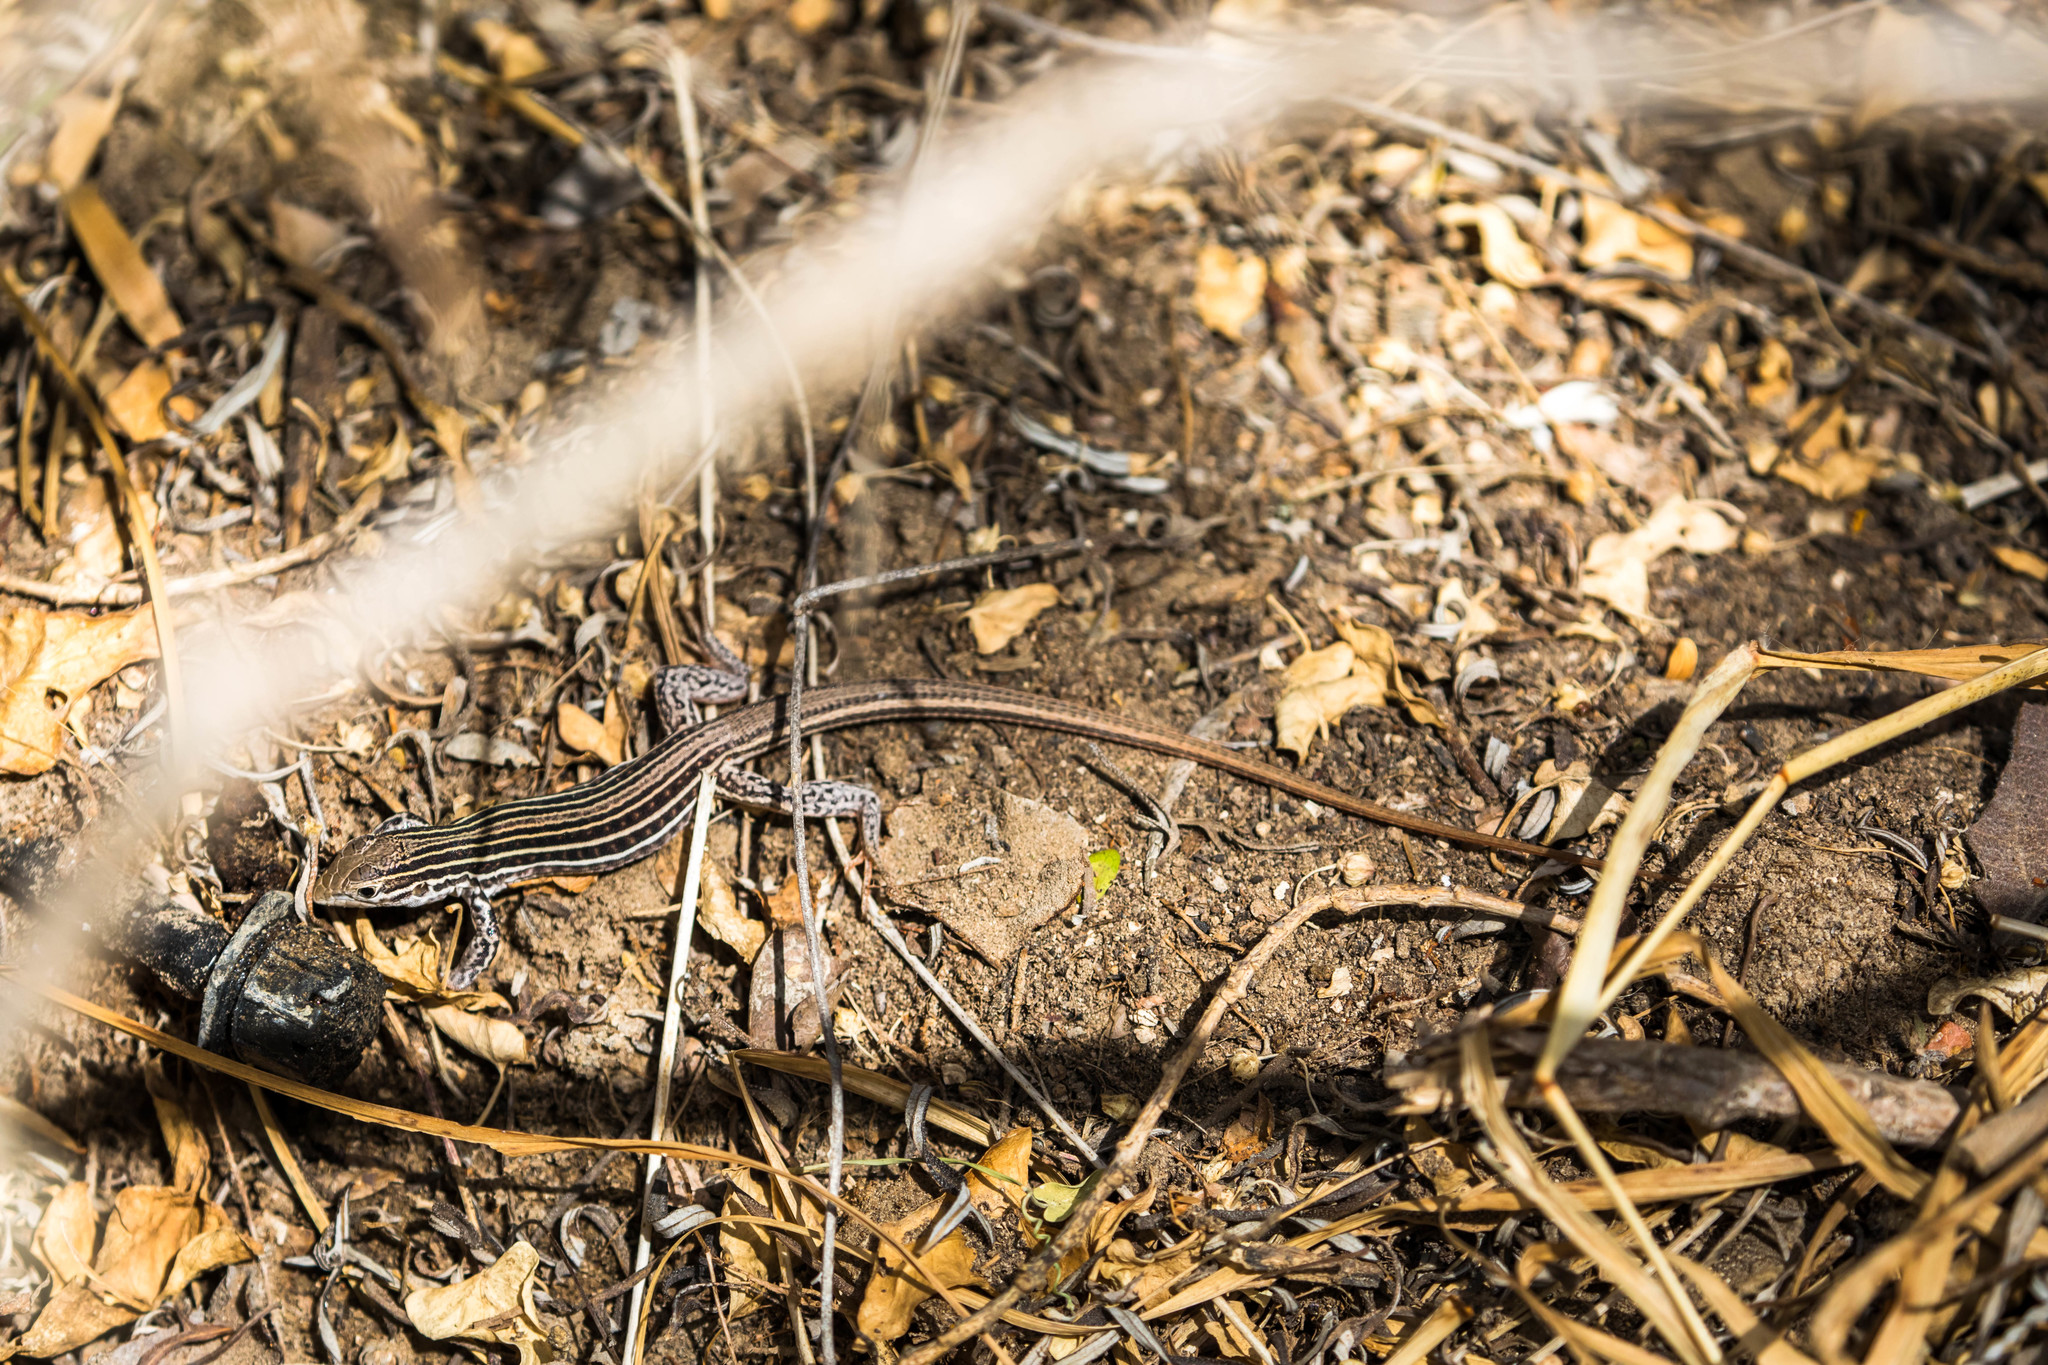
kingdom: Animalia
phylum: Chordata
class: Squamata
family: Teiidae
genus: Aspidoscelis
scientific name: Aspidoscelis gularis
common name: Eastern spotted whiptail
